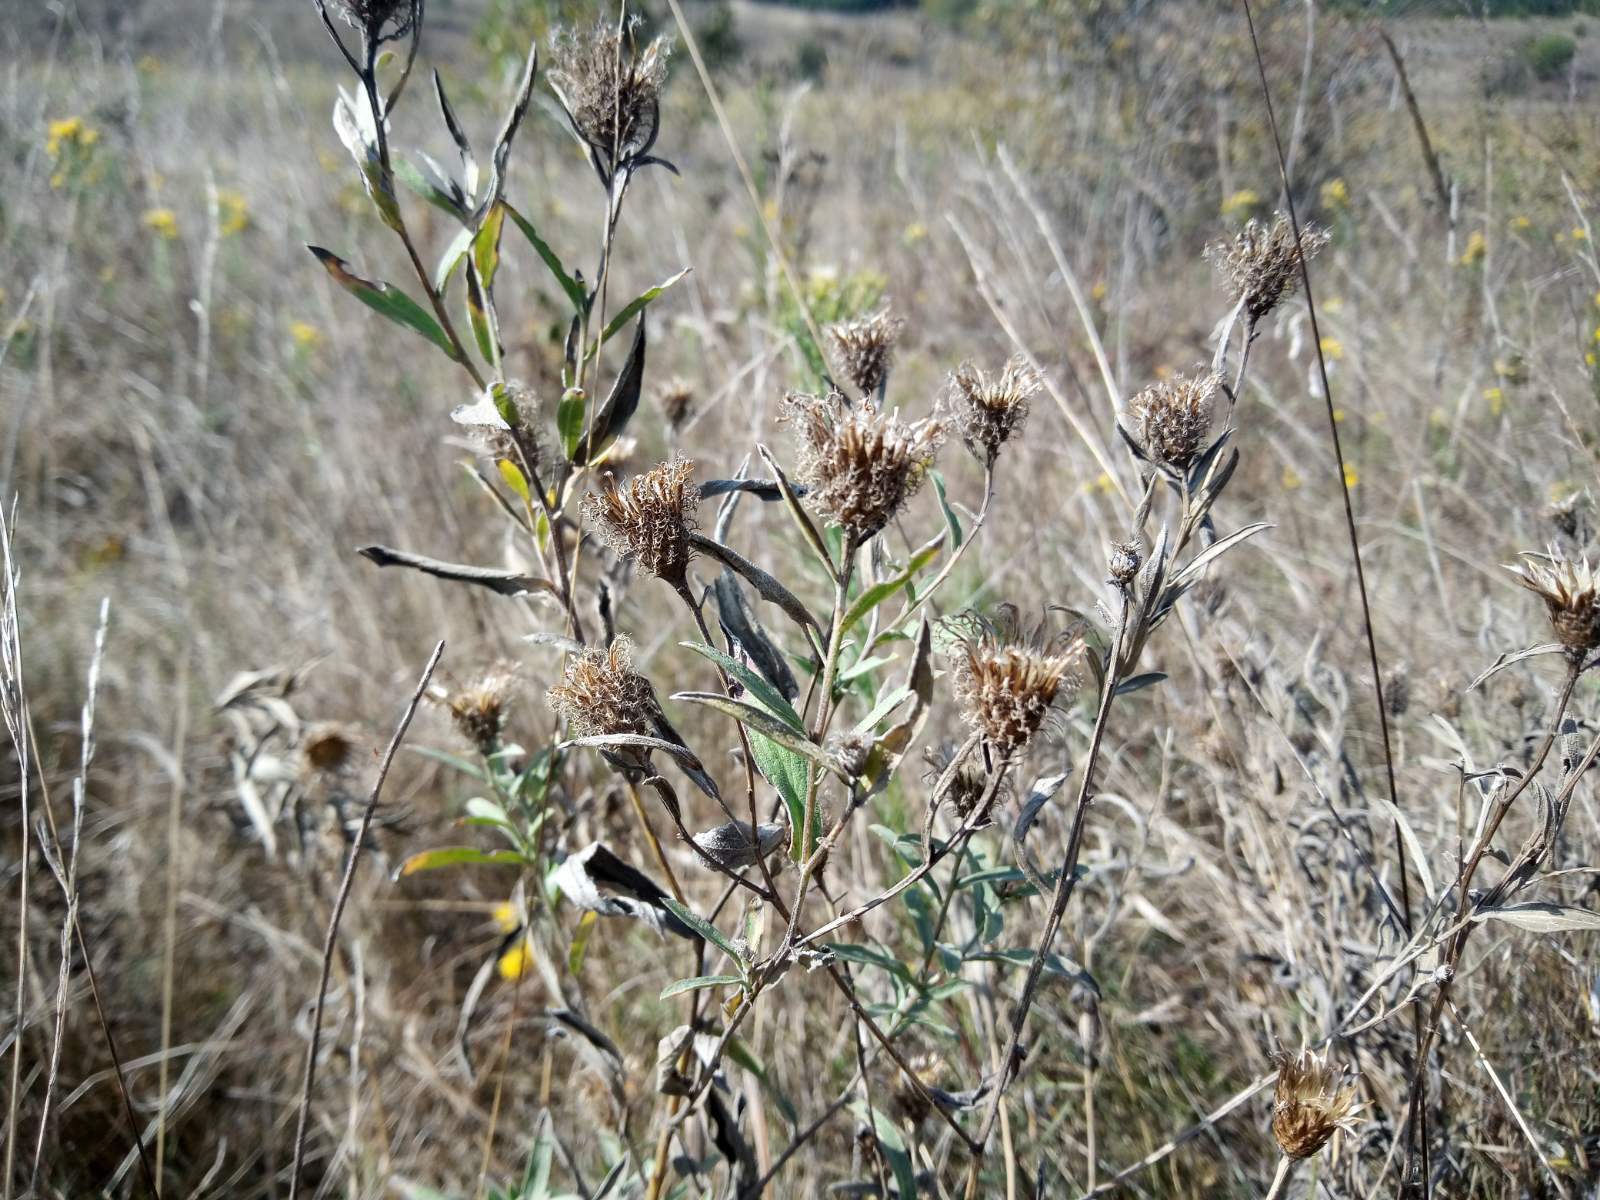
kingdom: Plantae
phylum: Tracheophyta
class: Magnoliopsida
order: Asterales
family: Asteraceae
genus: Centaurea
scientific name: Centaurea trichocephala
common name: Feather-head knapweed
